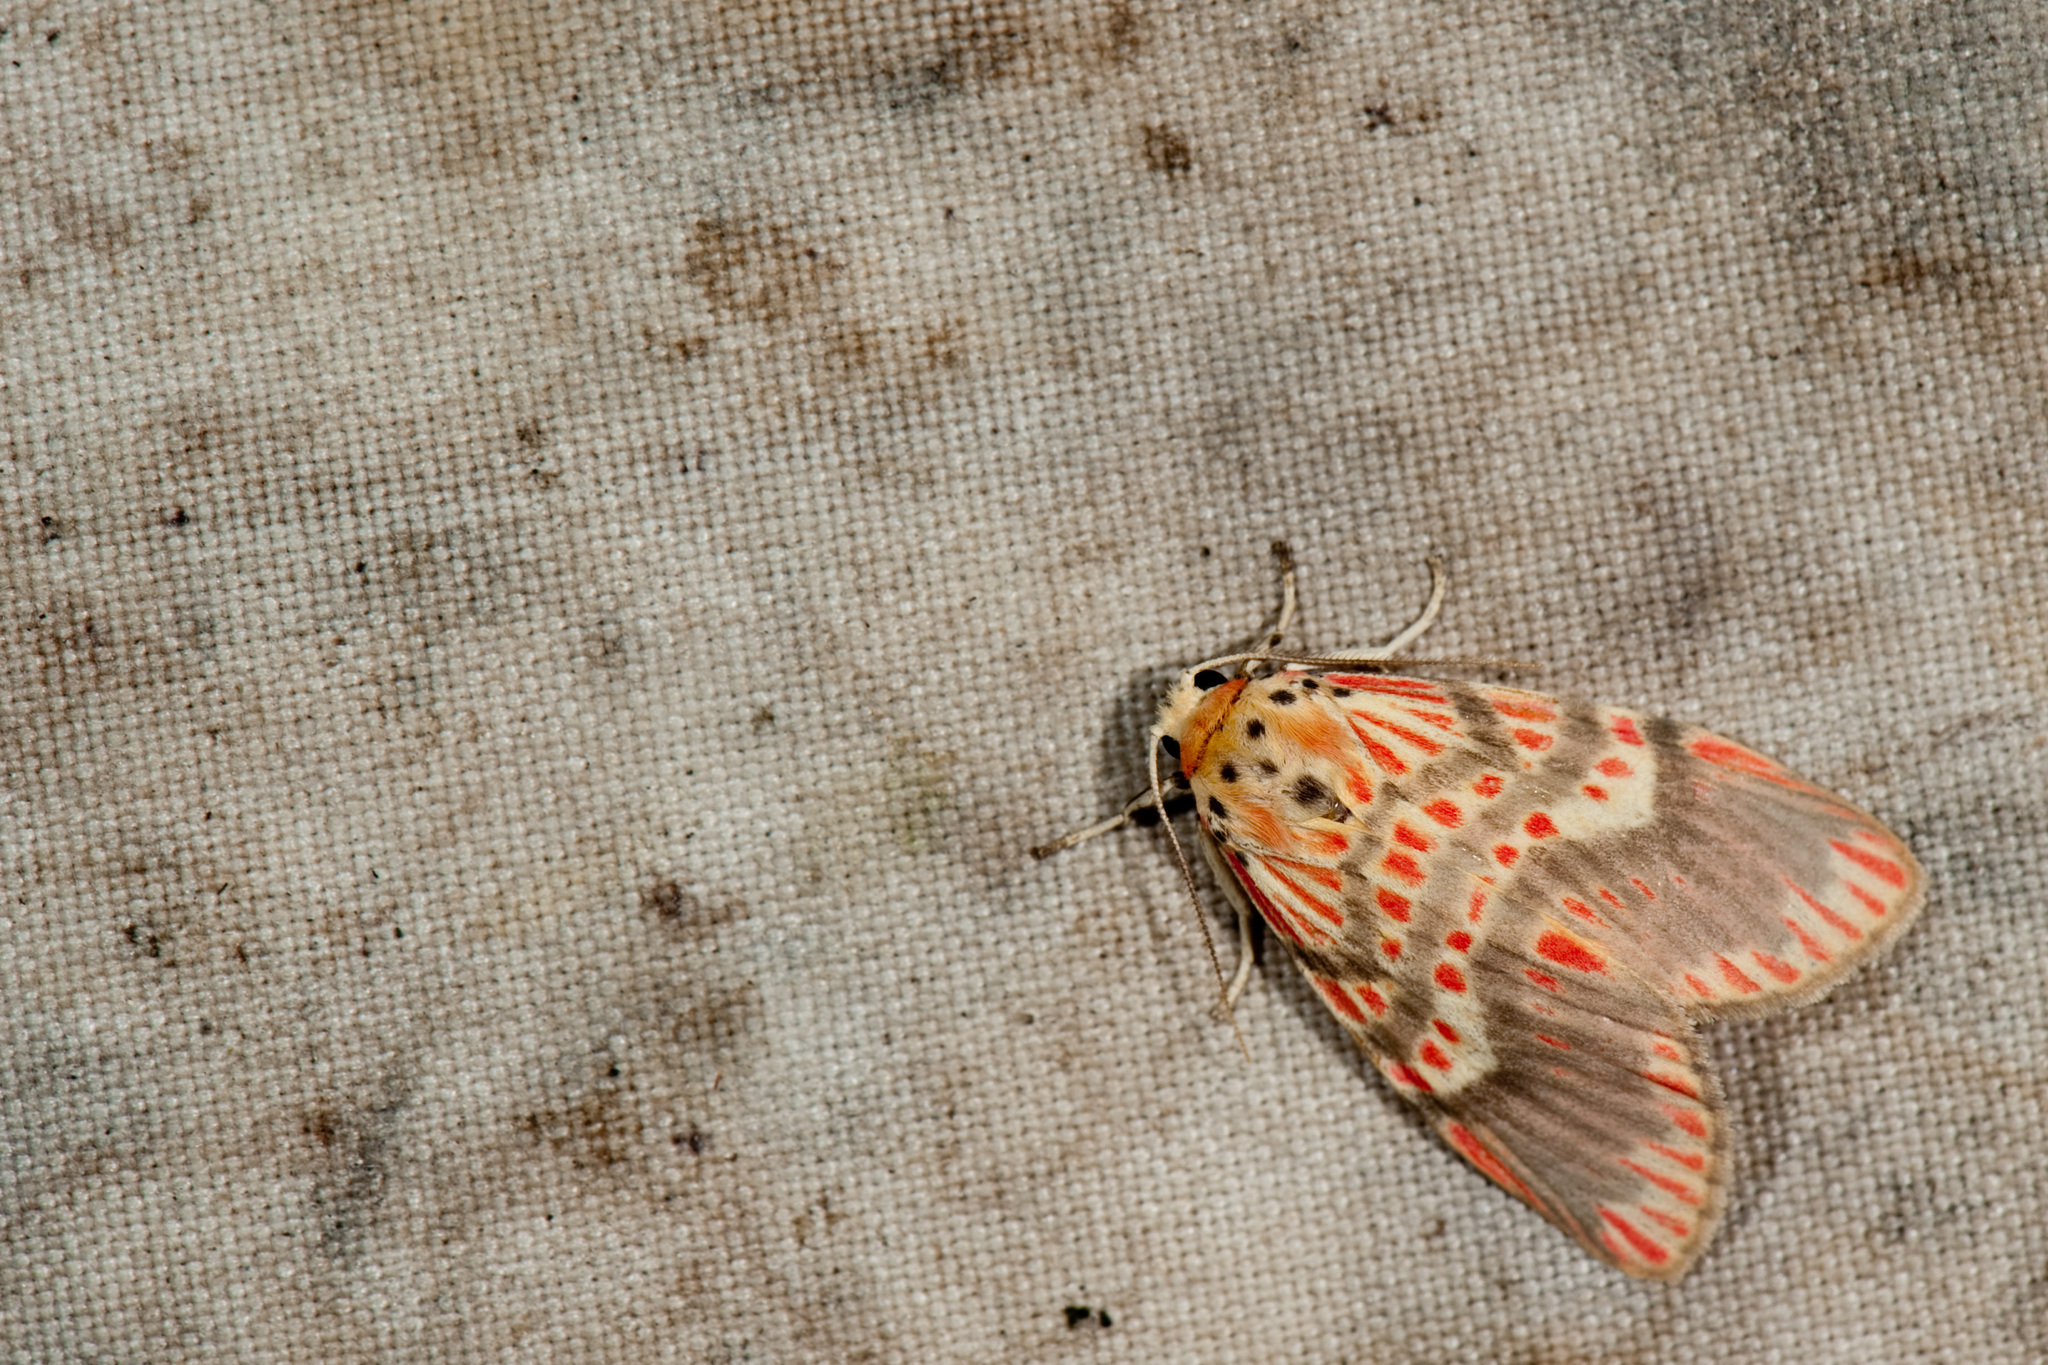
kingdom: Animalia
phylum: Arthropoda
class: Insecta
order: Lepidoptera
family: Erebidae
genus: Barsine
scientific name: Barsine fuscozonata
